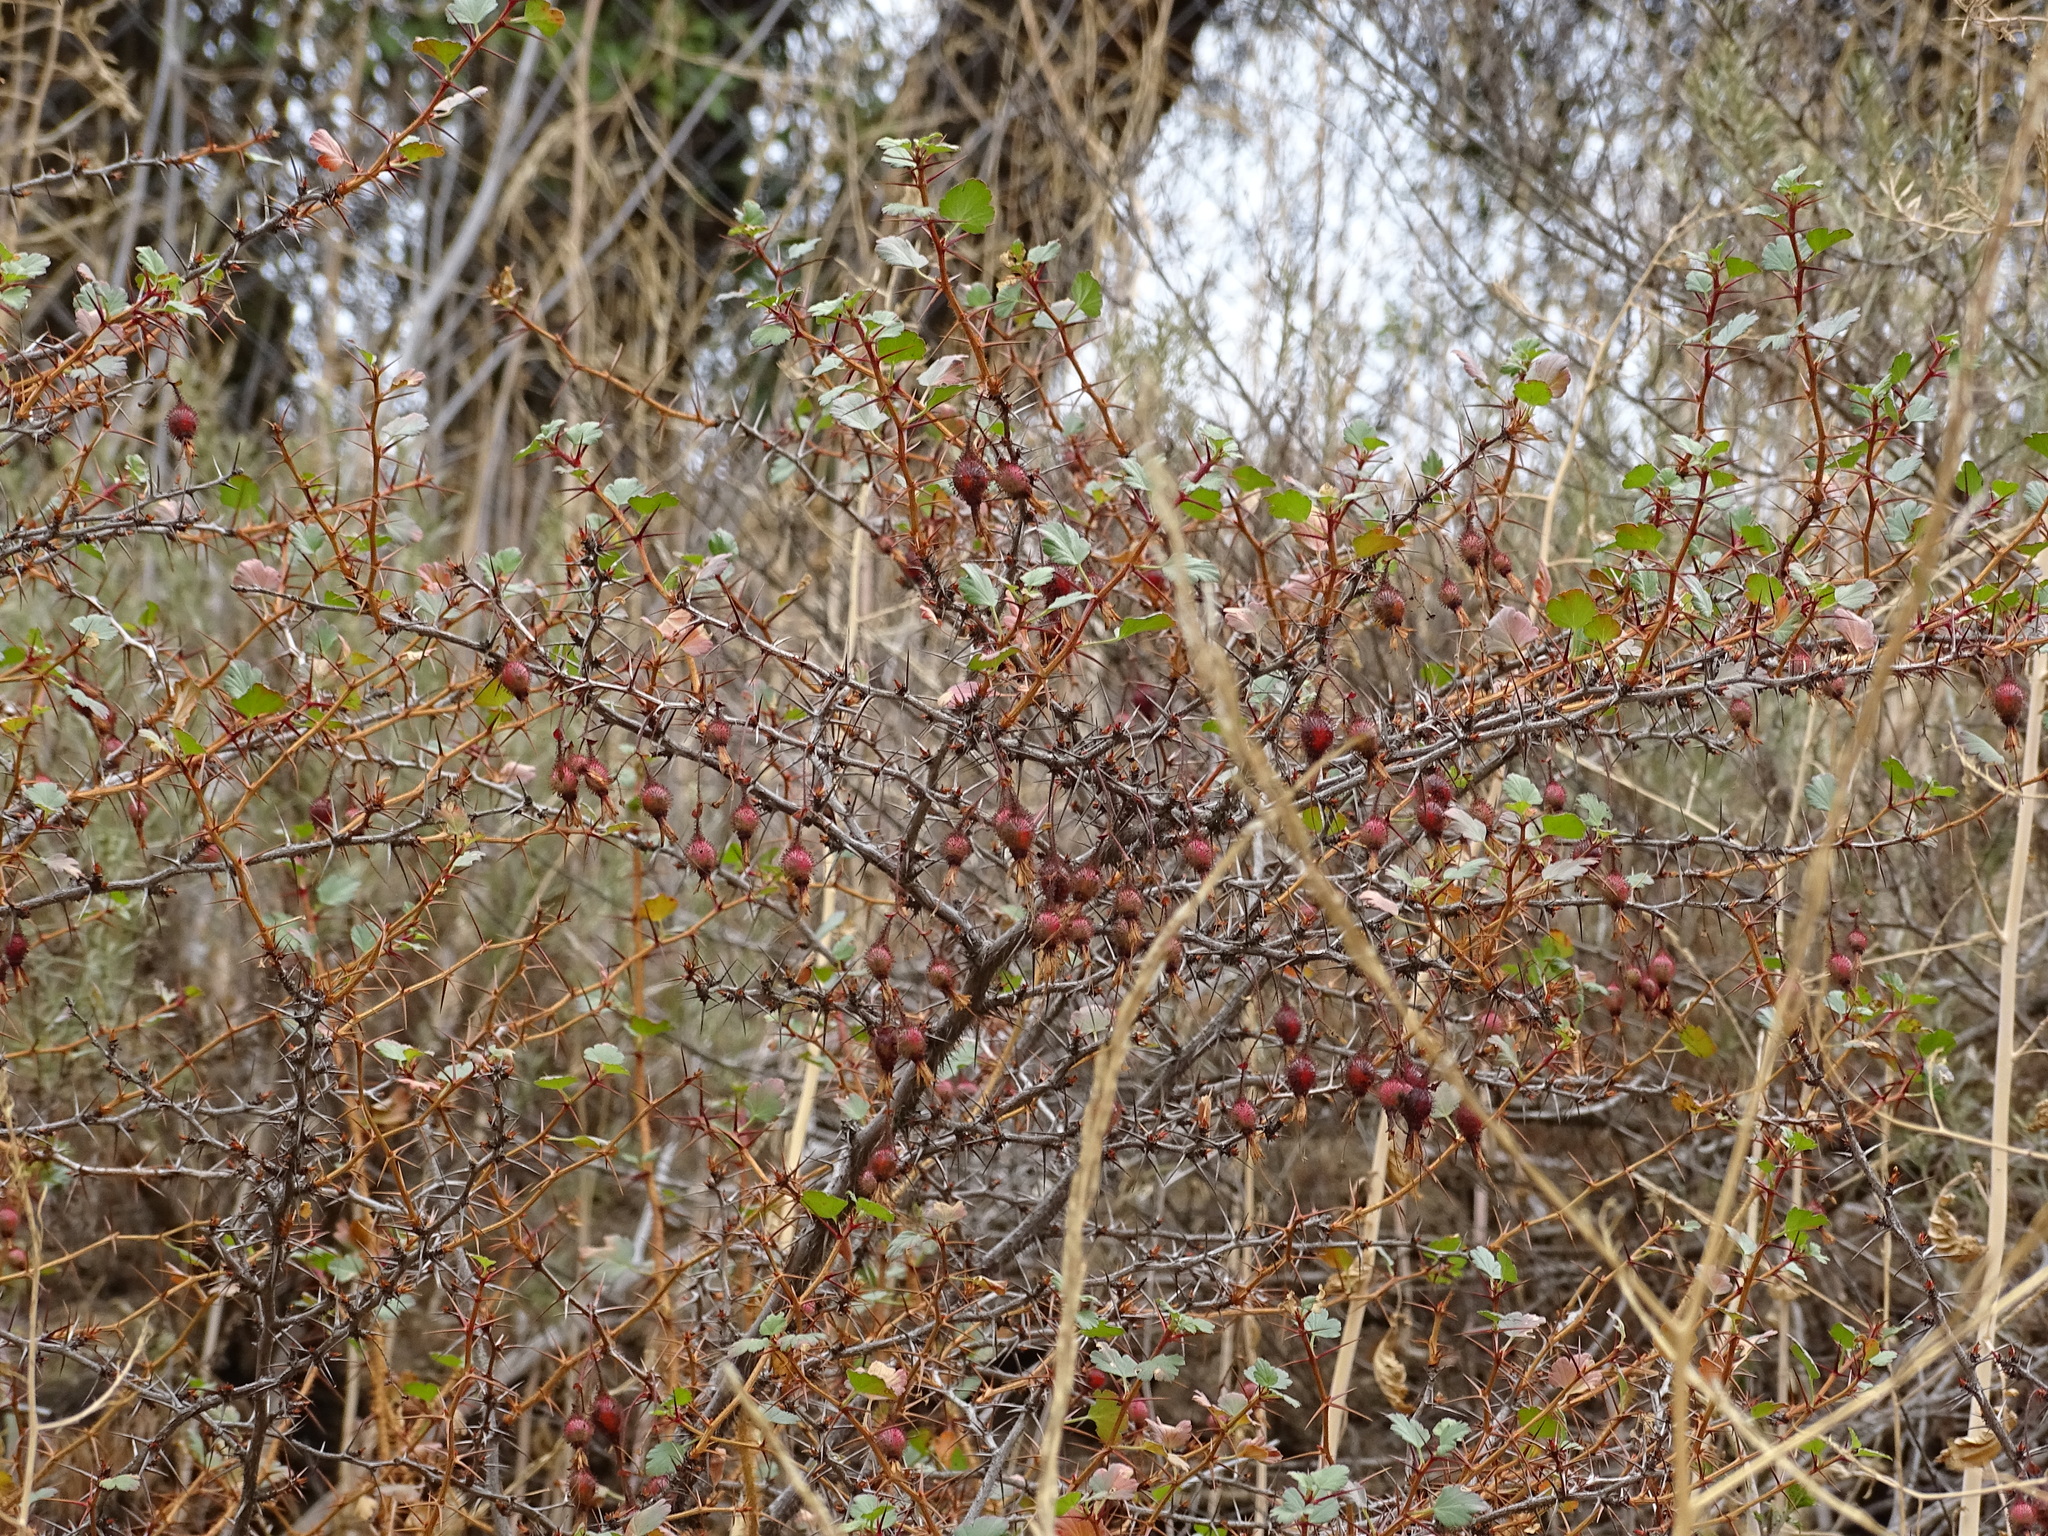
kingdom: Plantae
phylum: Tracheophyta
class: Magnoliopsida
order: Saxifragales
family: Grossulariaceae
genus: Ribes
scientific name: Ribes speciosum
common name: Fuchsia-flower gooseberry
